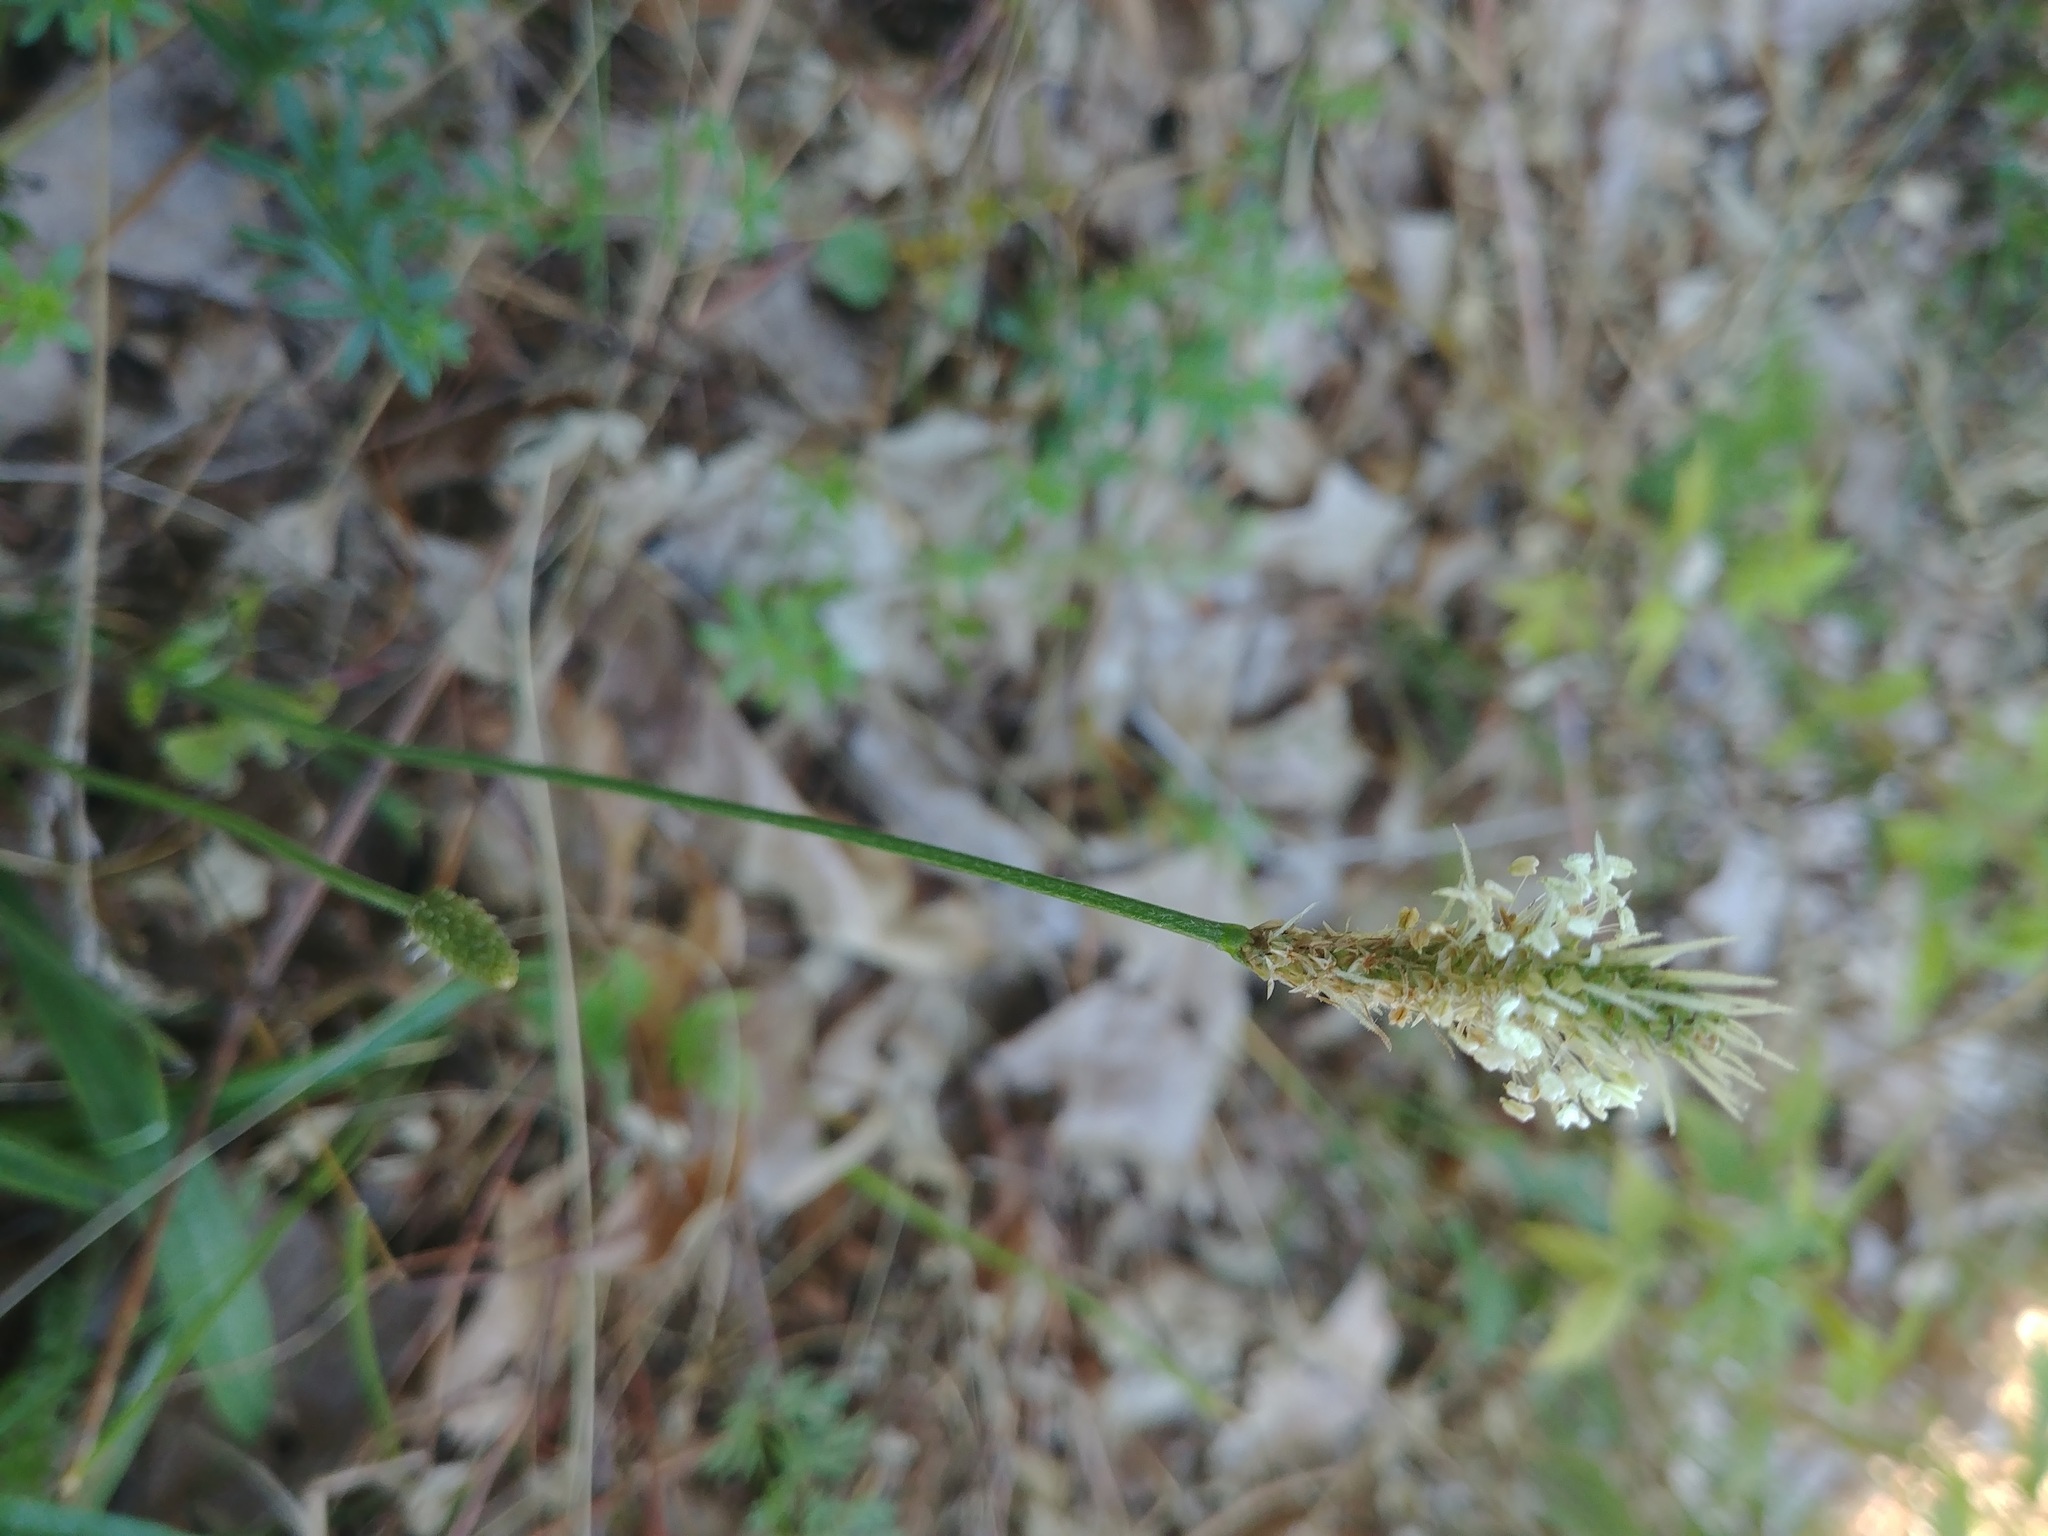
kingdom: Plantae
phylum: Tracheophyta
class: Magnoliopsida
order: Lamiales
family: Plantaginaceae
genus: Plantago
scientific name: Plantago lanceolata
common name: Ribwort plantain
